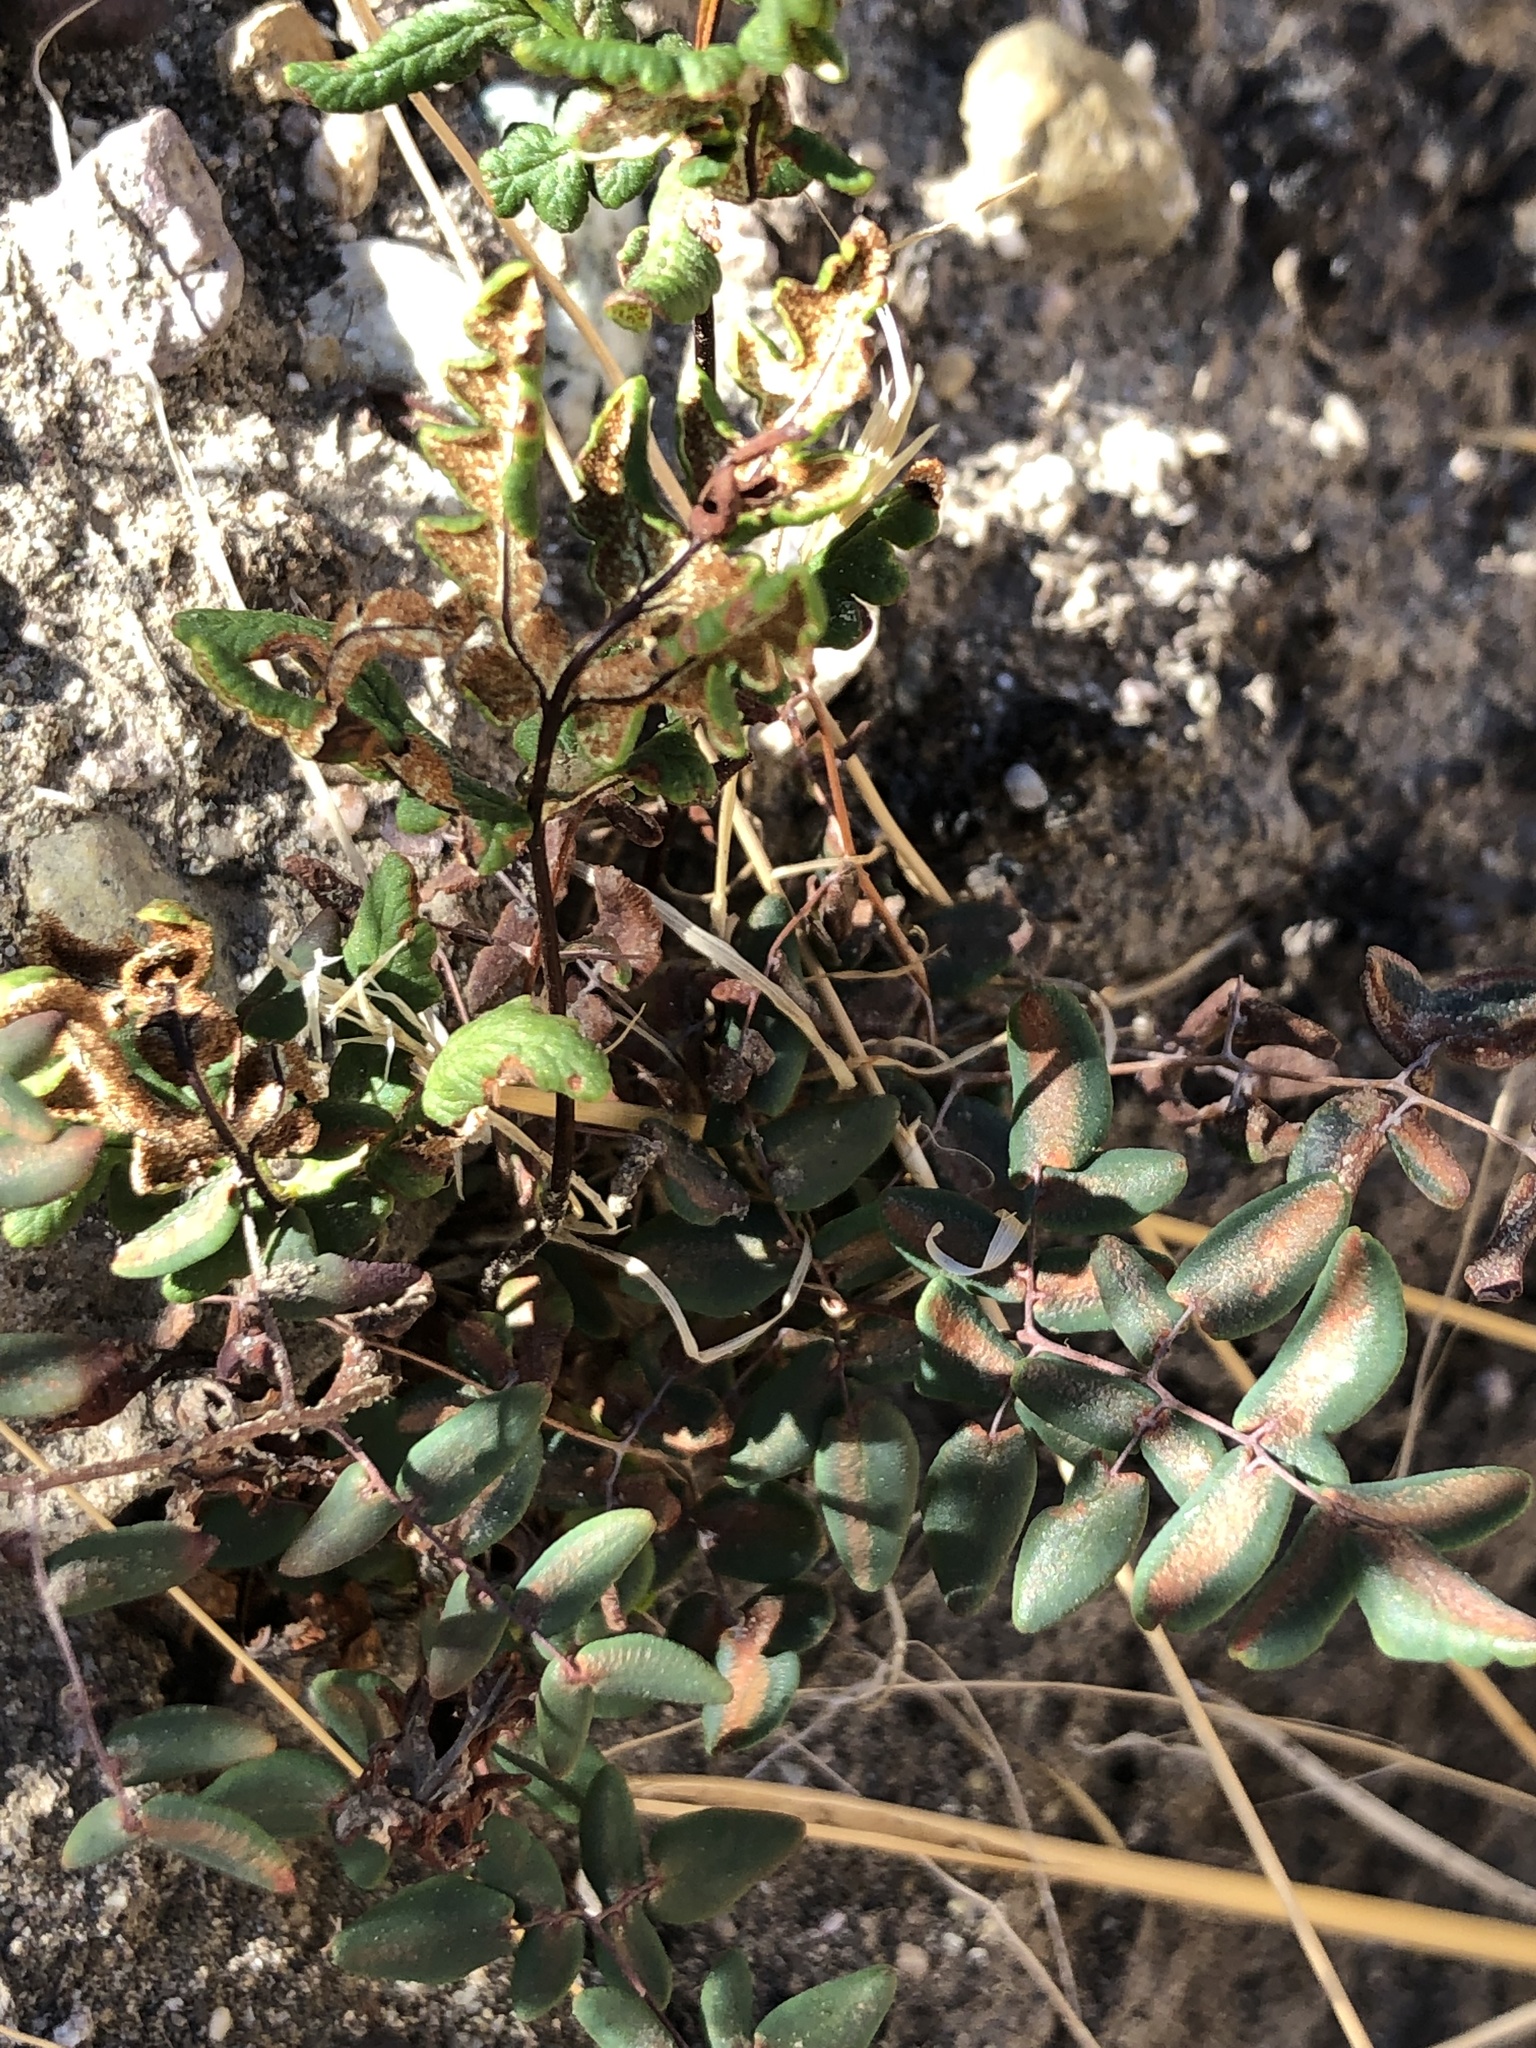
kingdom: Plantae
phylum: Tracheophyta
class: Polypodiopsida
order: Polypodiales
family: Pteridaceae
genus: Pellaea
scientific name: Pellaea andromedifolia
